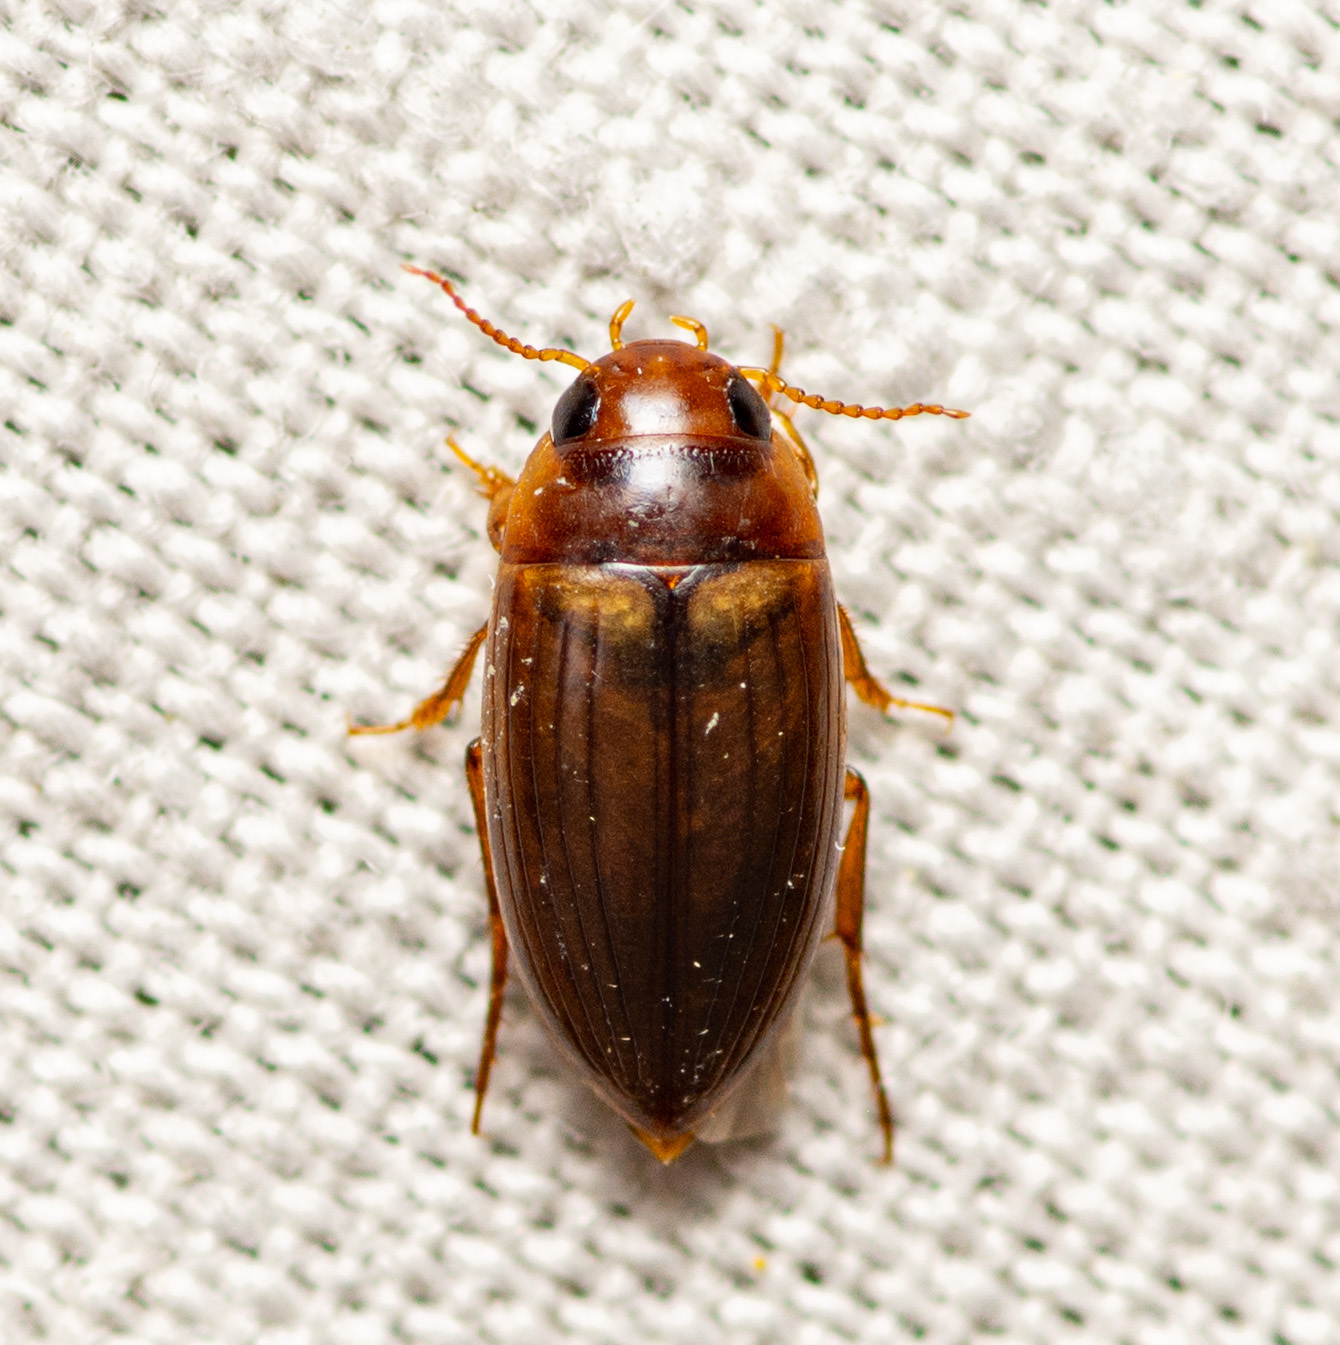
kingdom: Animalia
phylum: Arthropoda
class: Insecta
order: Coleoptera
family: Dytiscidae
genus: Copelatus
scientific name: Copelatus debilis
